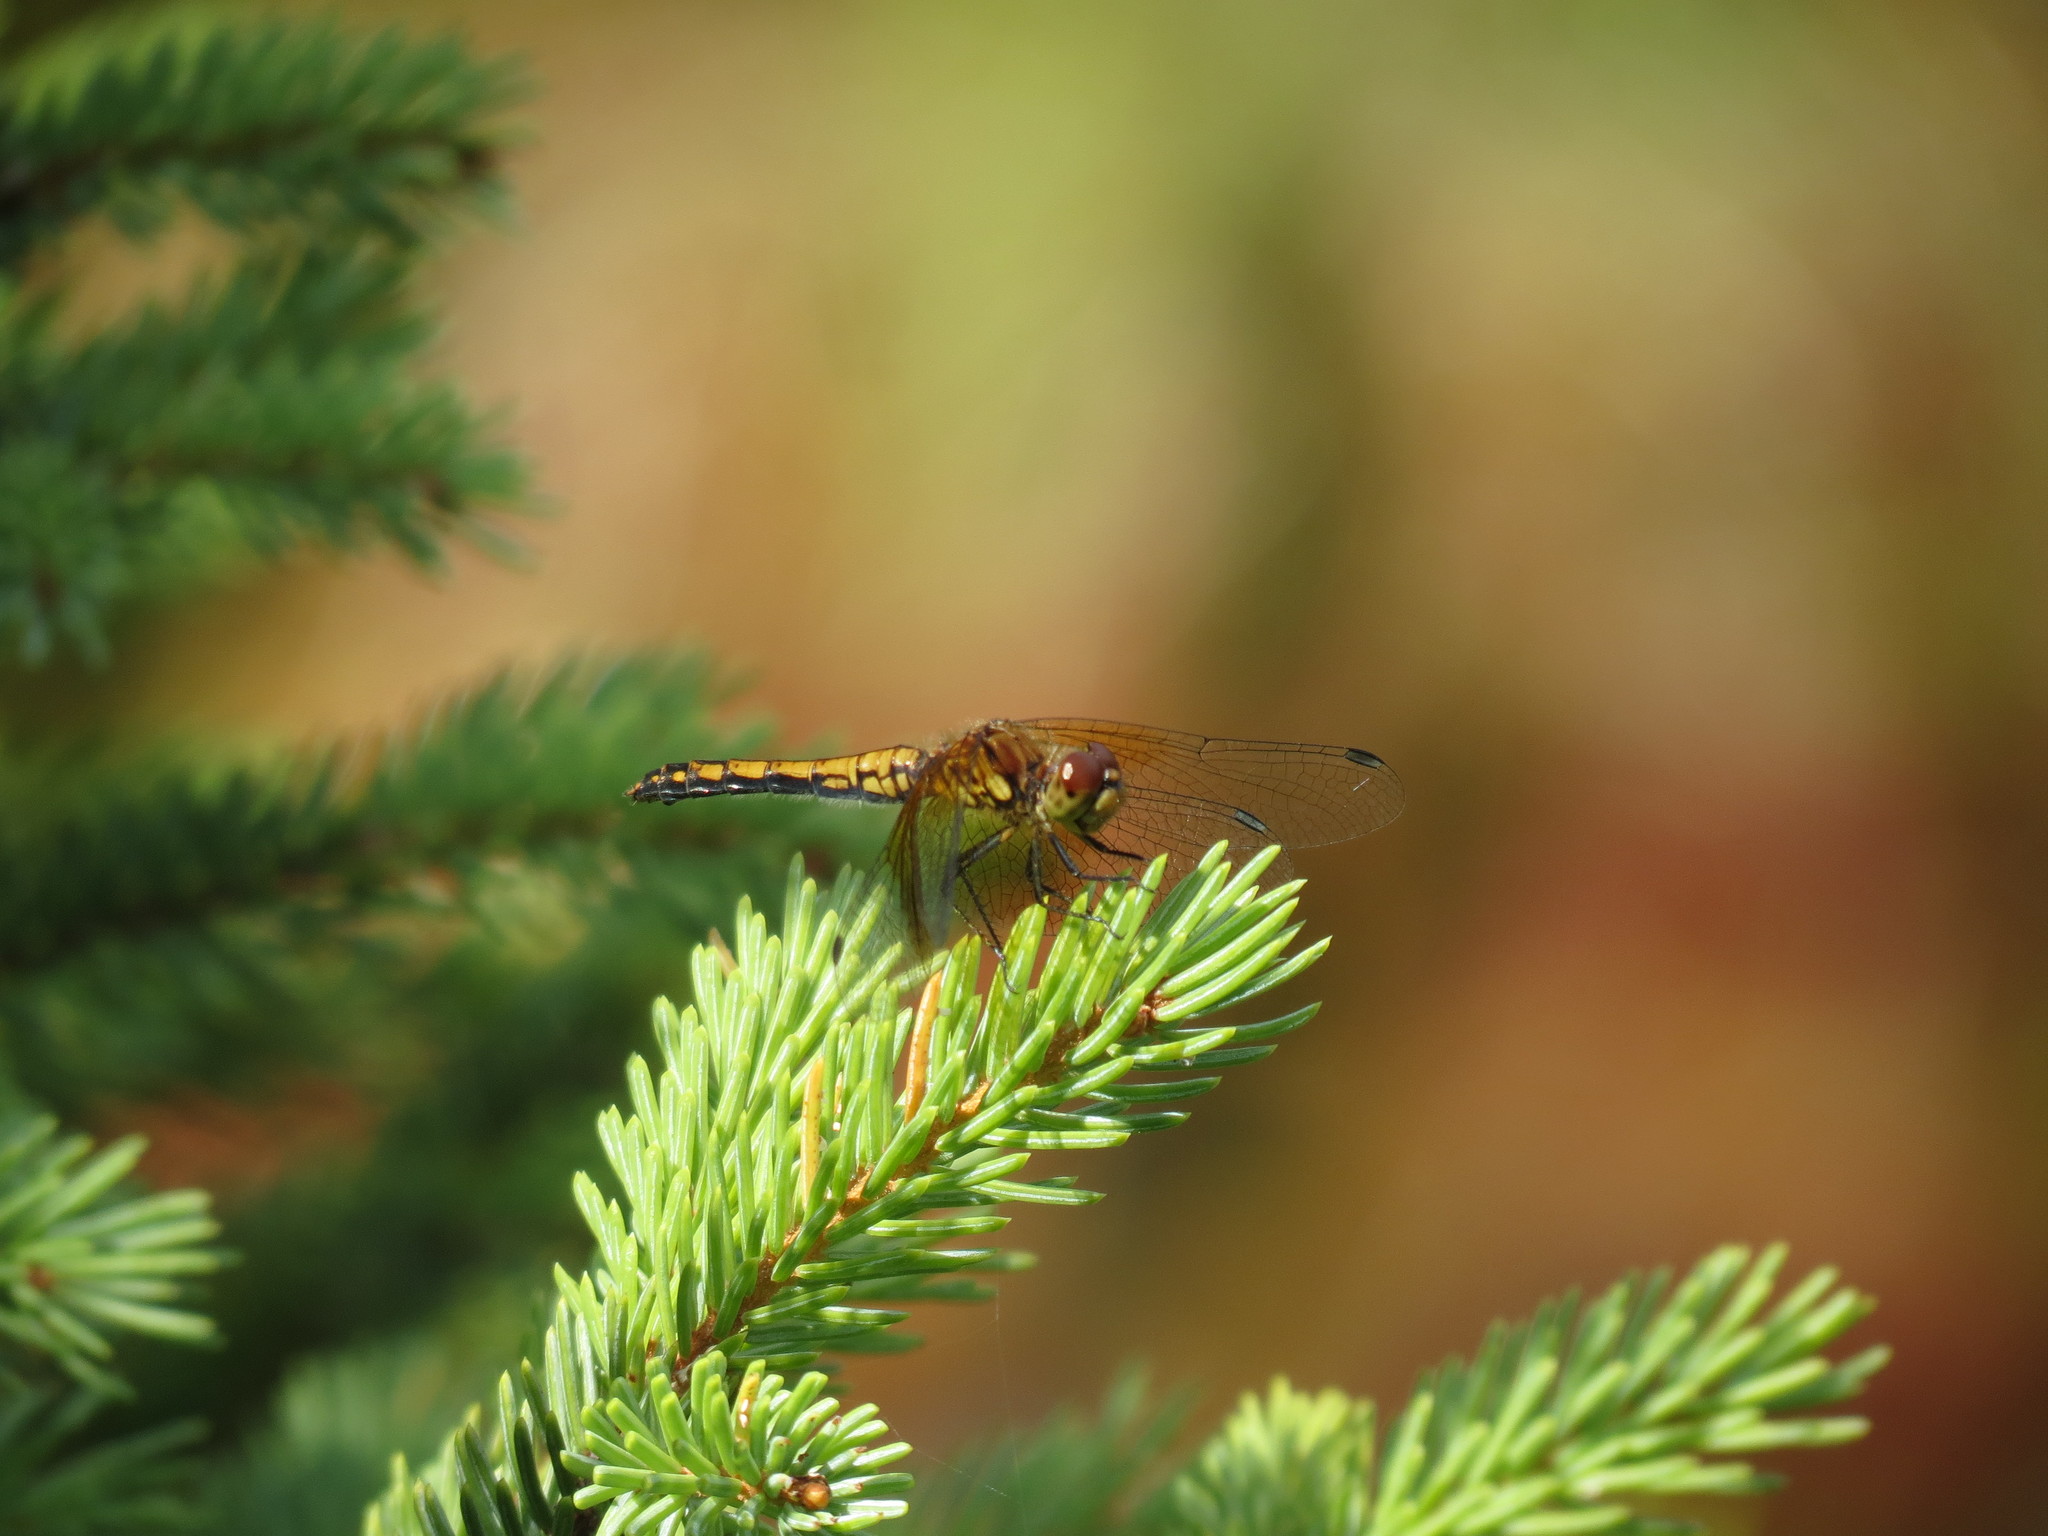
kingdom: Animalia
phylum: Arthropoda
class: Insecta
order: Odonata
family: Libellulidae
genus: Sympetrum
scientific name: Sympetrum semicinctum
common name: Band-winged meadowhawk
